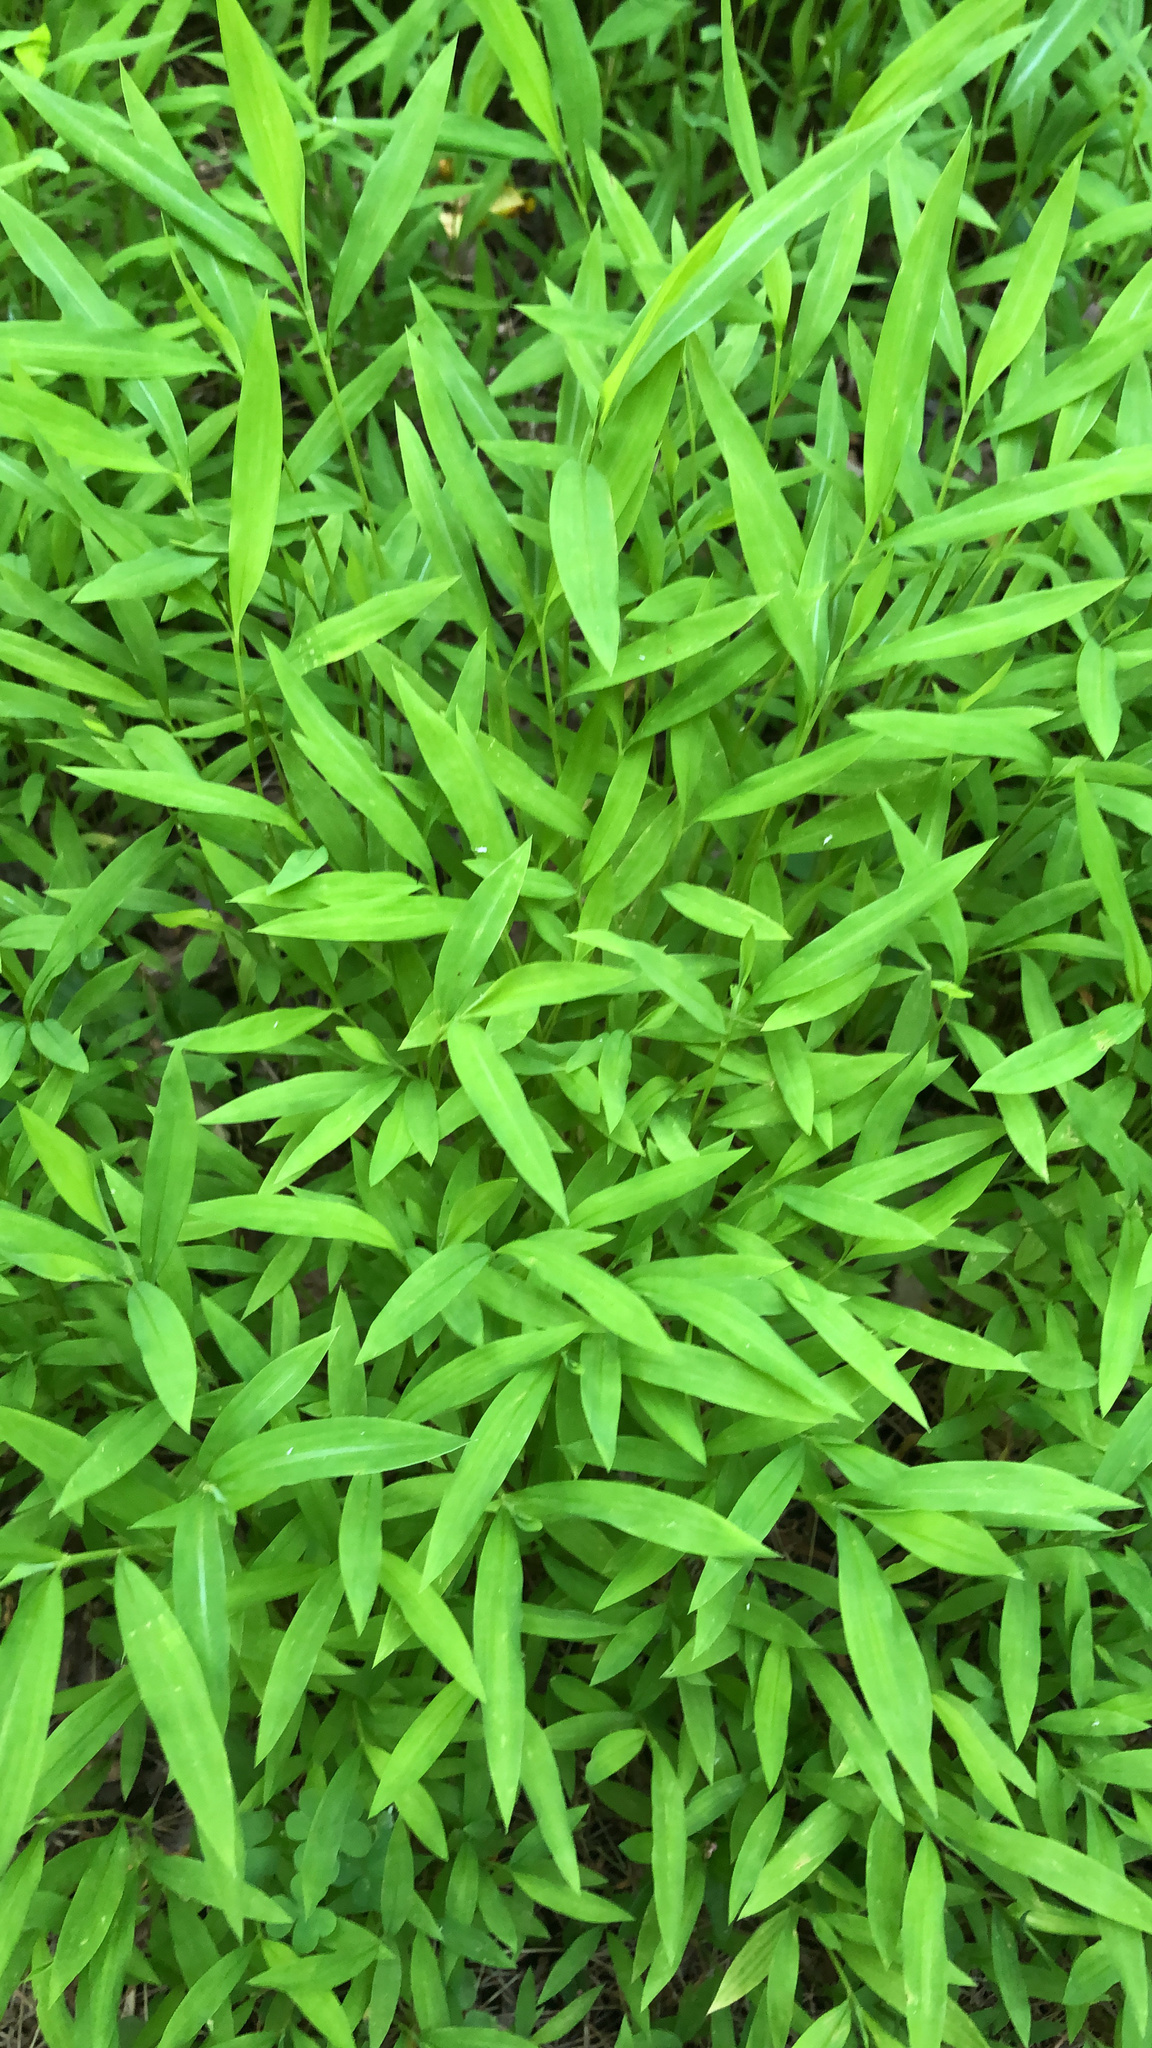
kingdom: Plantae
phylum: Tracheophyta
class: Liliopsida
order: Poales
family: Poaceae
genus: Microstegium
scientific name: Microstegium vimineum
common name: Japanese stiltgrass
